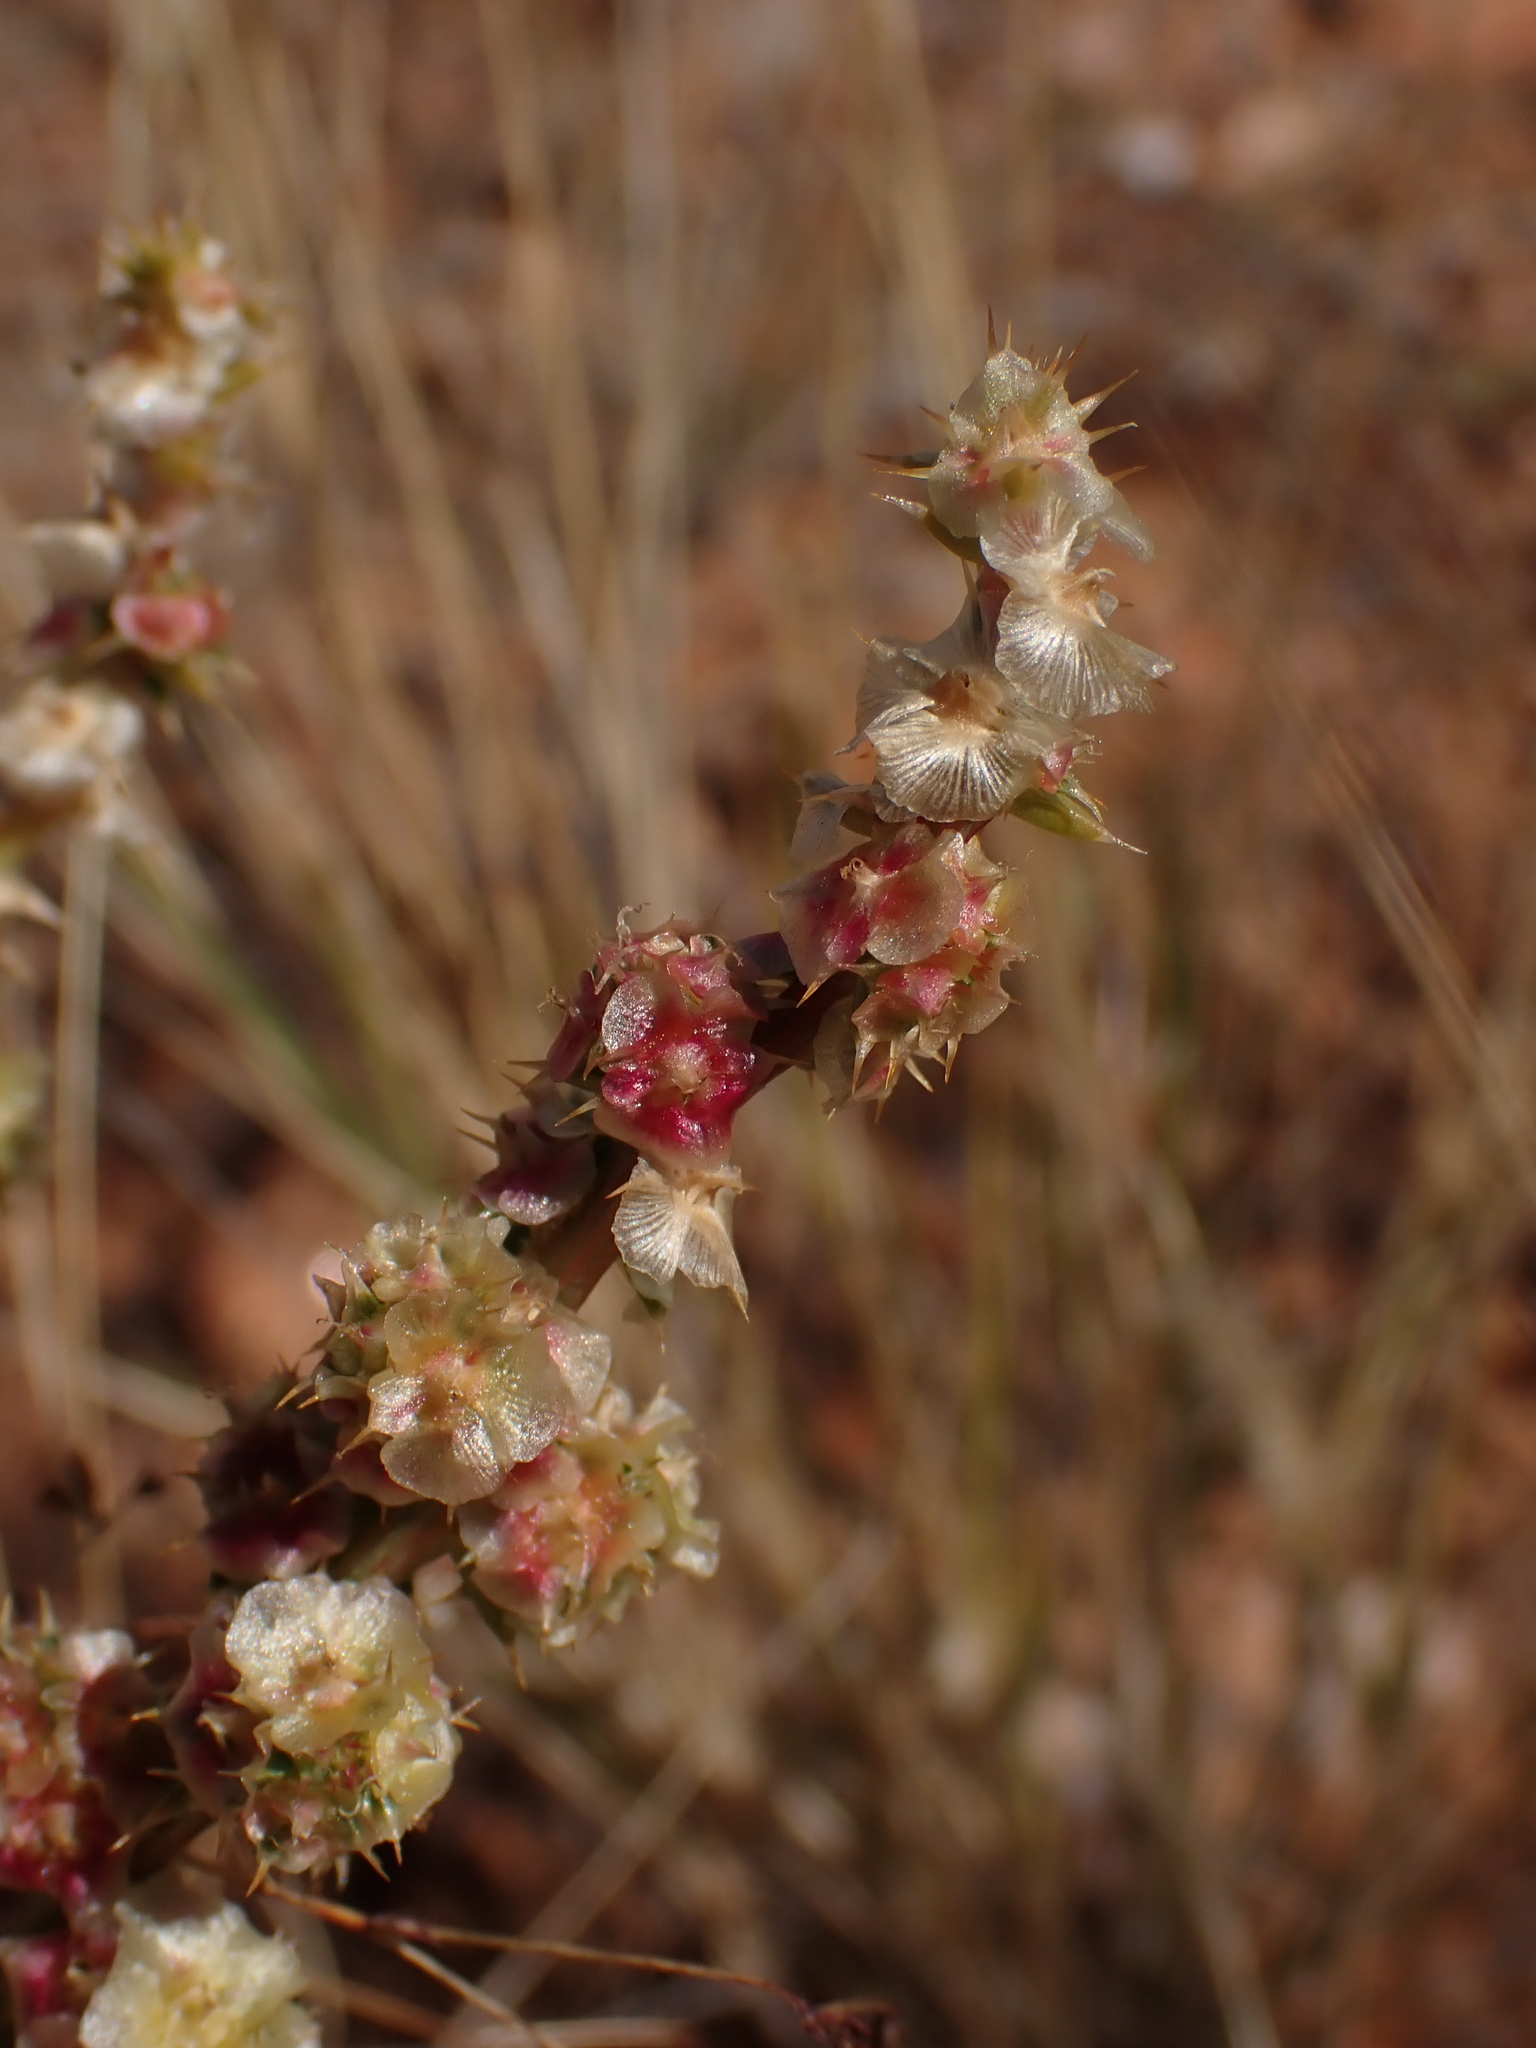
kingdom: Plantae
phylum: Tracheophyta
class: Magnoliopsida
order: Caryophyllales
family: Amaranthaceae
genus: Salsola
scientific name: Salsola australis
